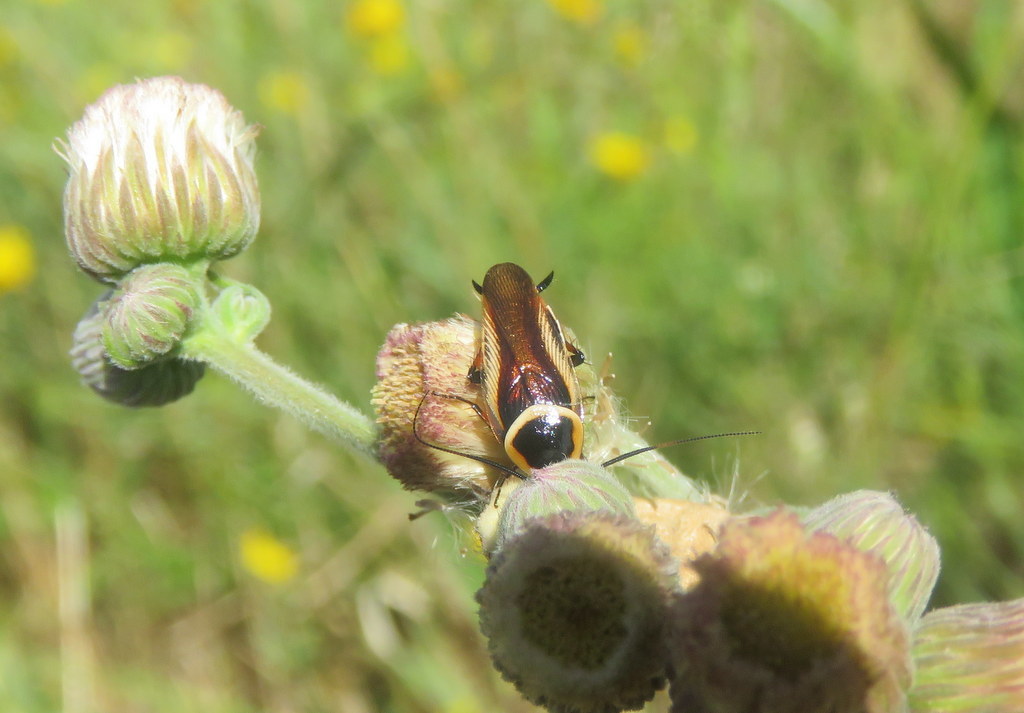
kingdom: Animalia
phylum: Arthropoda
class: Insecta
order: Blattodea
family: Ectobiidae
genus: Pseudomops
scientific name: Pseudomops neglectus
